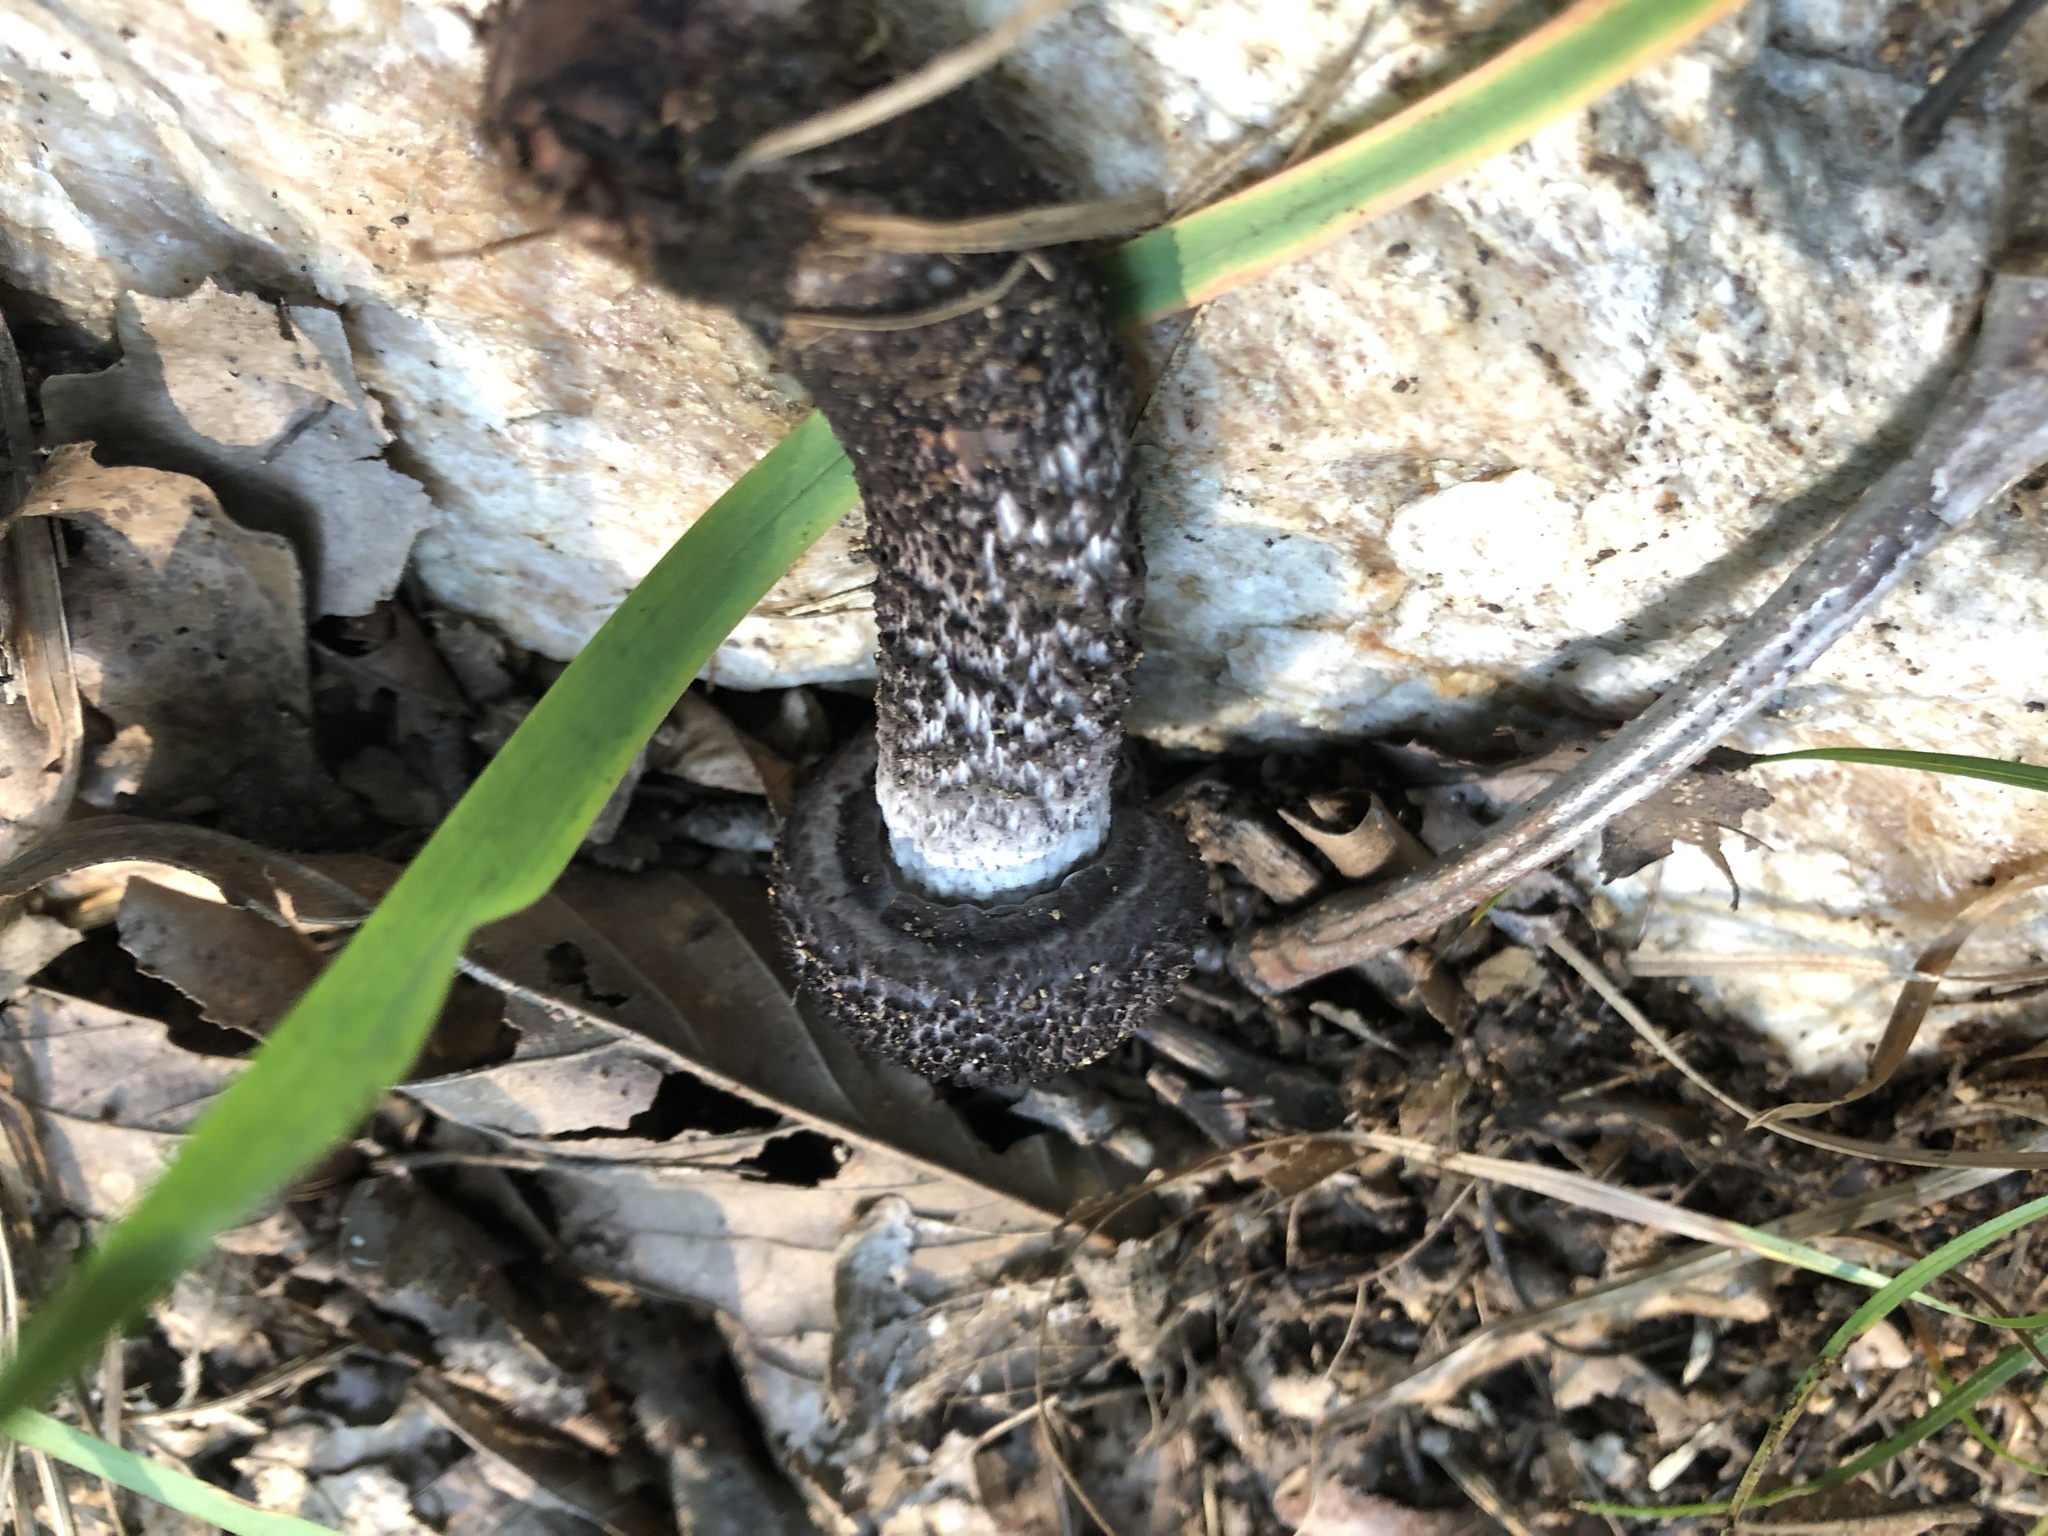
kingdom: Fungi
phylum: Basidiomycota
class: Agaricomycetes
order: Boletales
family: Boletaceae
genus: Strobilomyces
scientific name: Strobilomyces strobilaceus
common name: Old man of the woods
